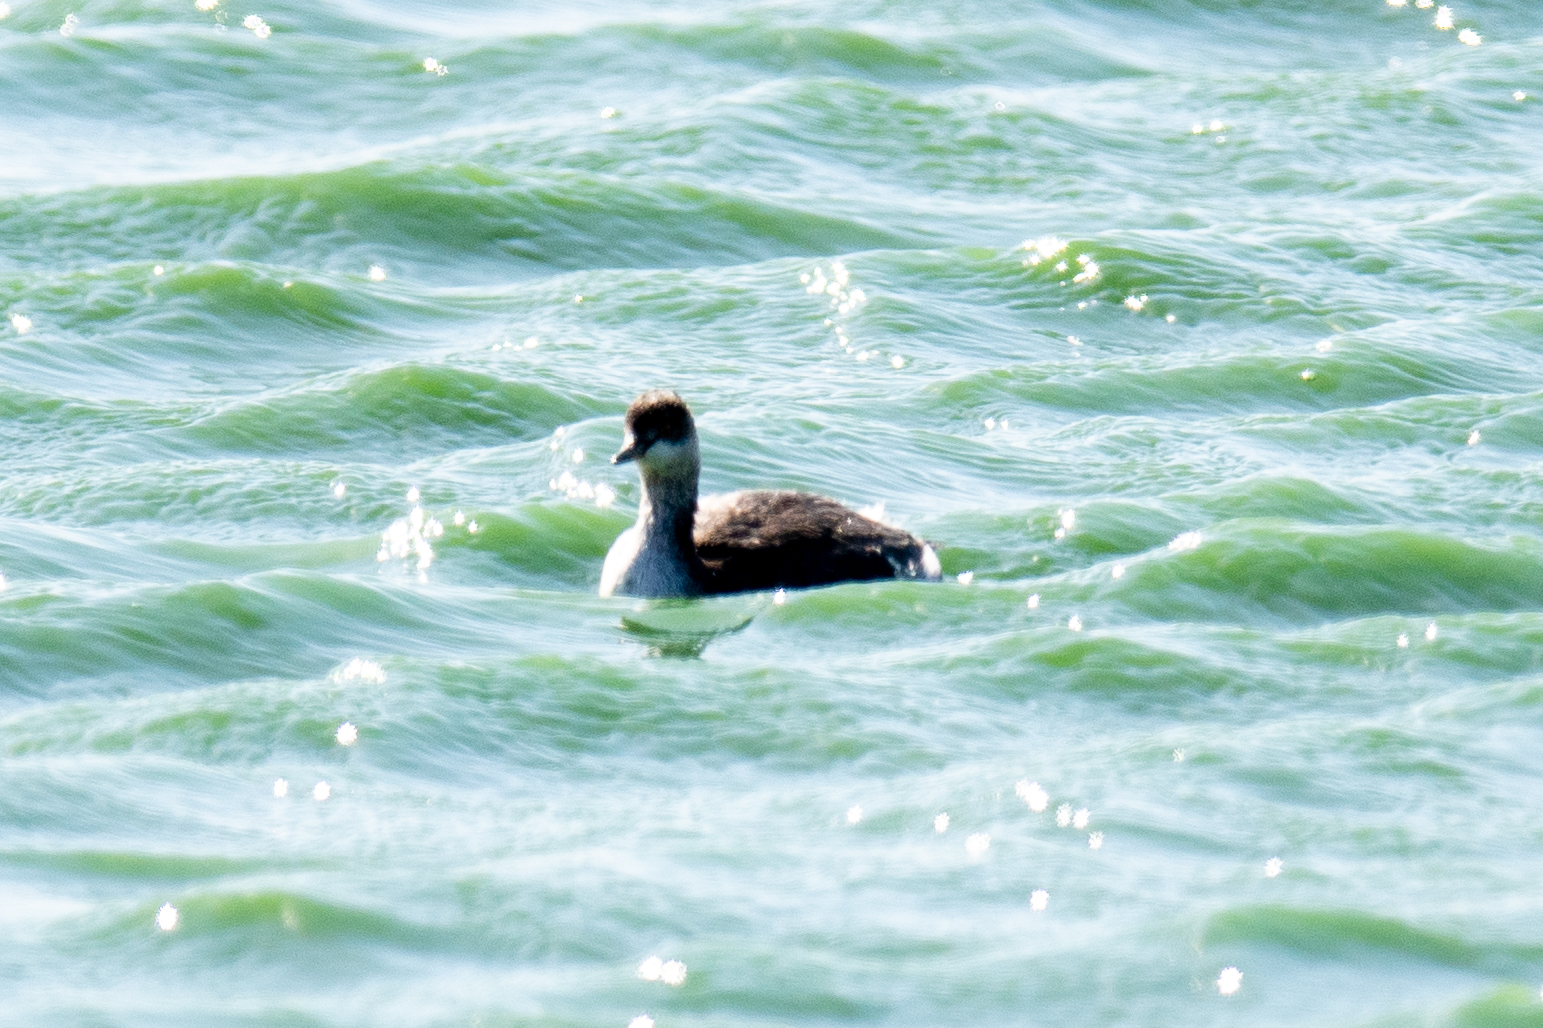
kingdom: Animalia
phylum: Chordata
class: Aves
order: Podicipediformes
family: Podicipedidae
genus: Podiceps
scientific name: Podiceps nigricollis
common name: Black-necked grebe
